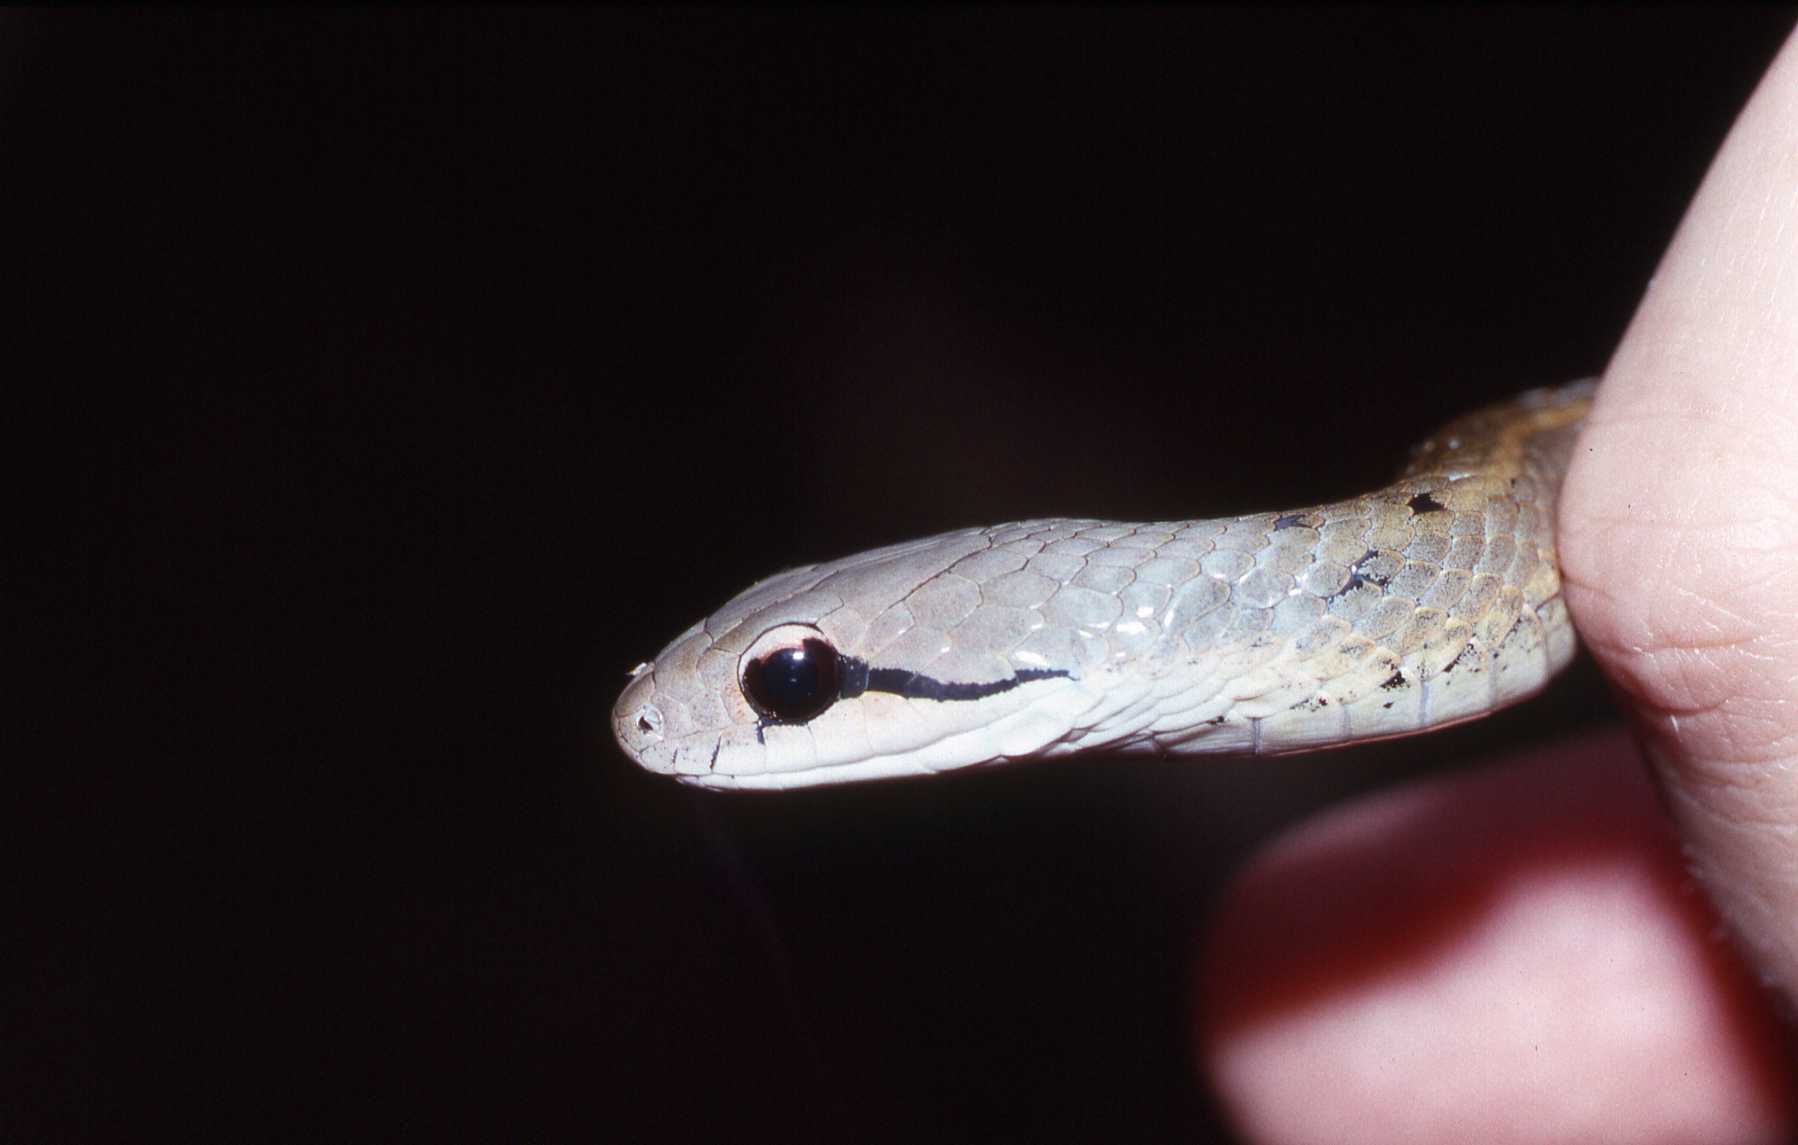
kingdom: Animalia
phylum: Chordata
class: Squamata
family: Pseudoxyrhophiidae
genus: Thamnosophis
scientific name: Thamnosophis infrasignatus
